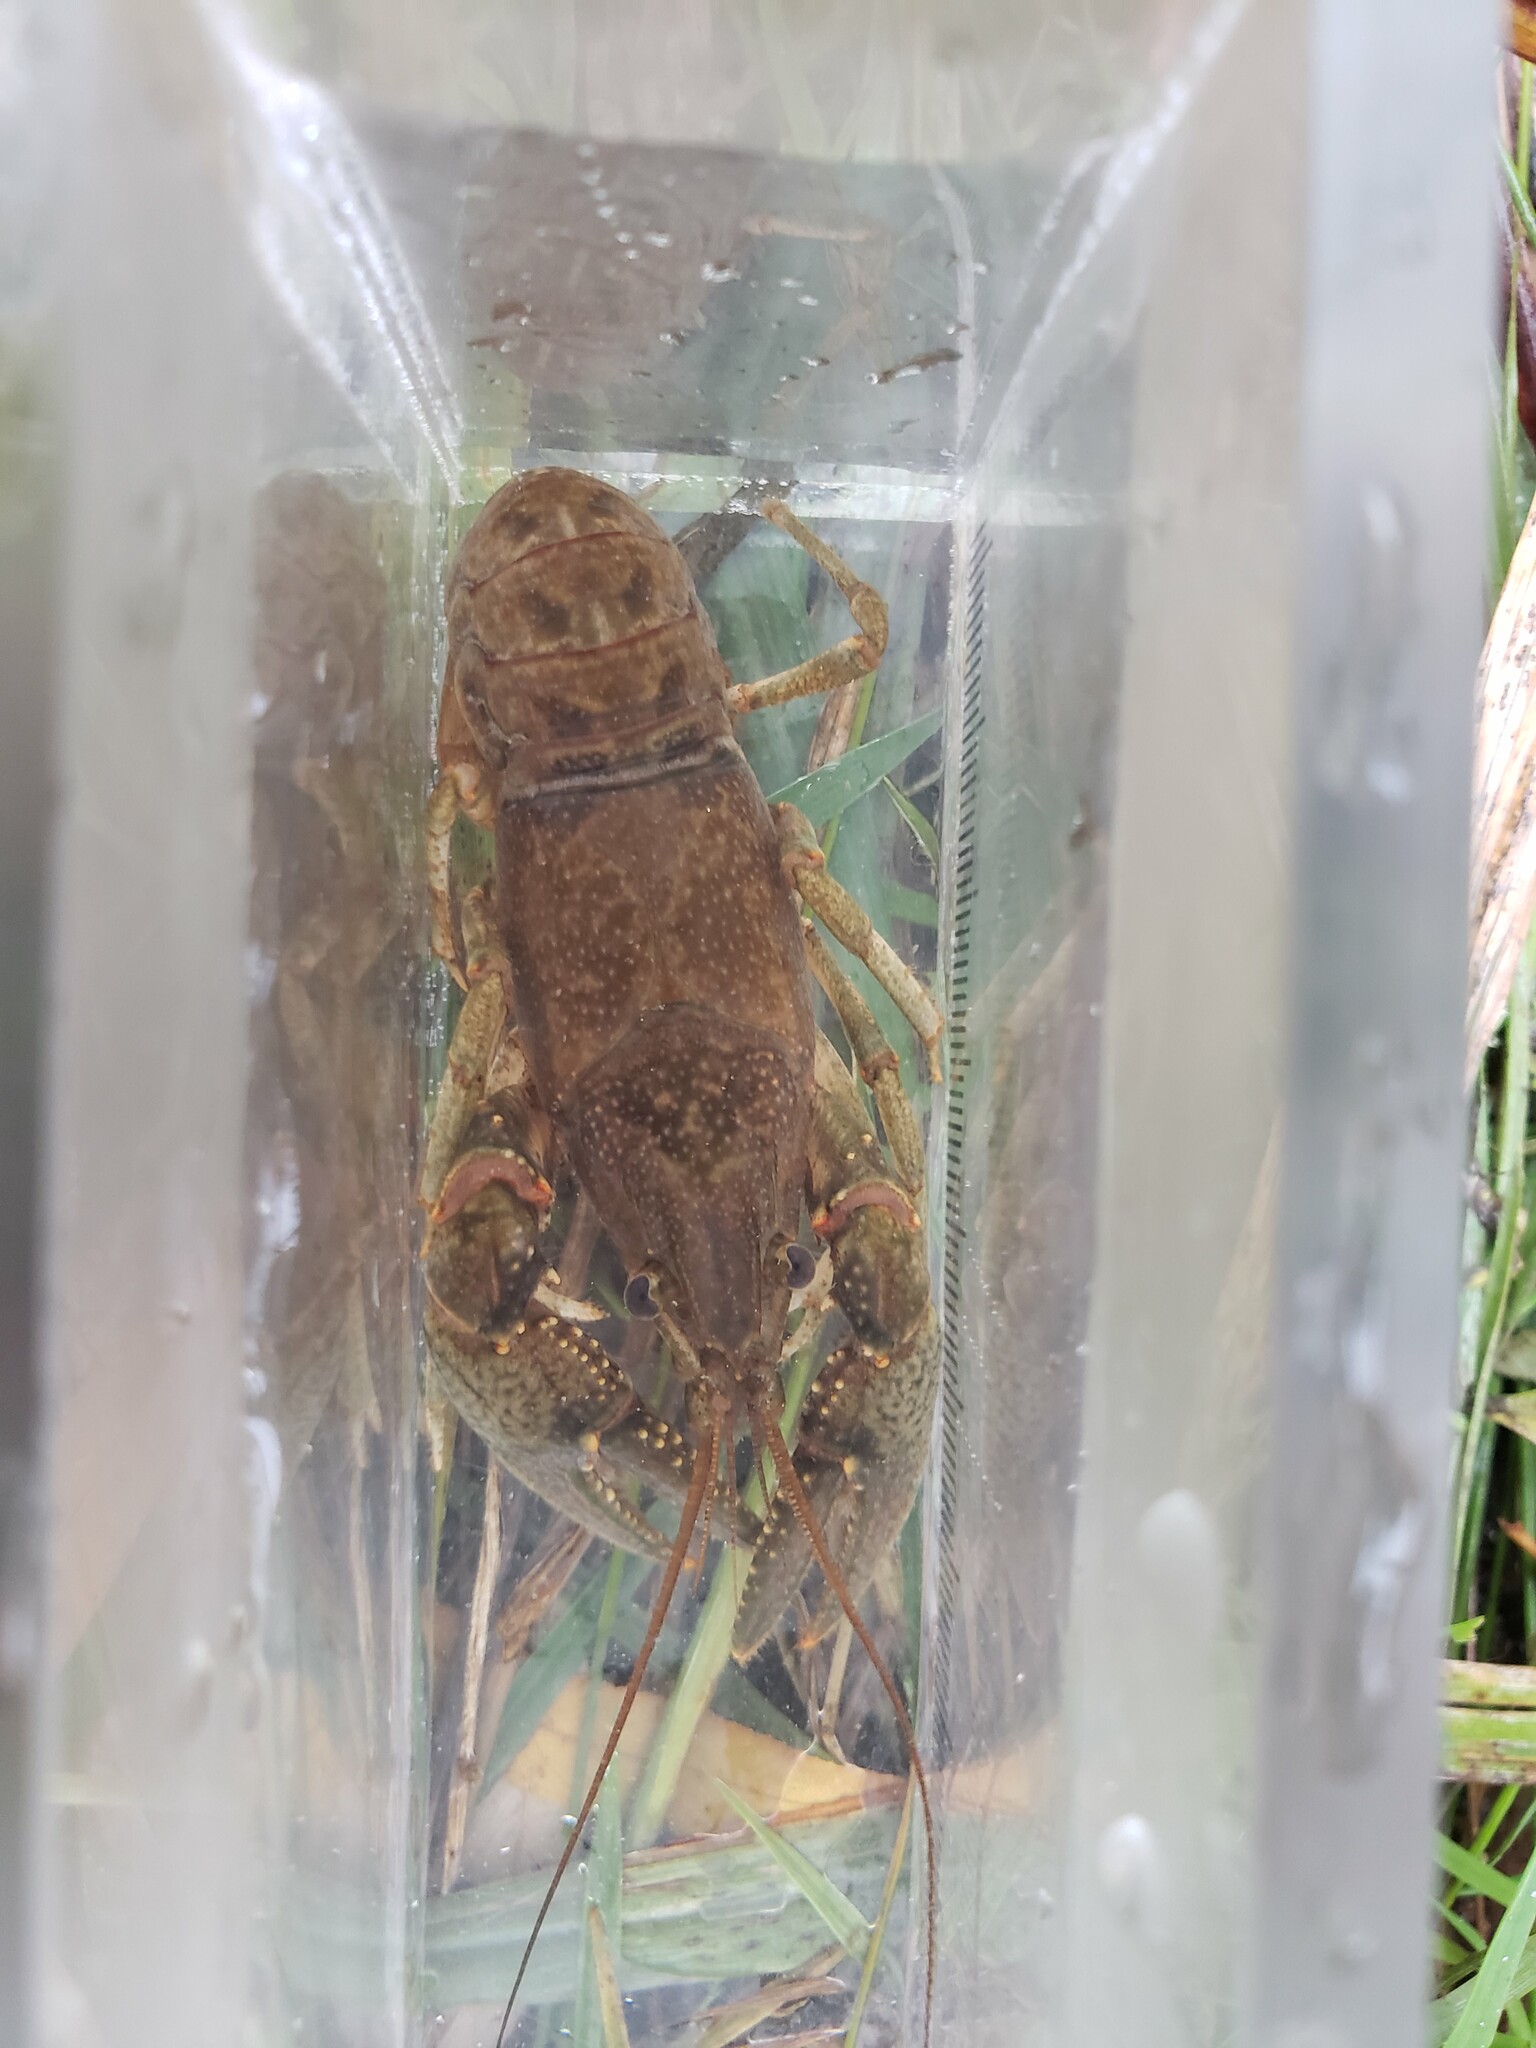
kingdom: Animalia
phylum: Arthropoda
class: Malacostraca
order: Decapoda
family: Cambaridae
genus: Faxonius
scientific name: Faxonius virilis
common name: Virile crayfish
